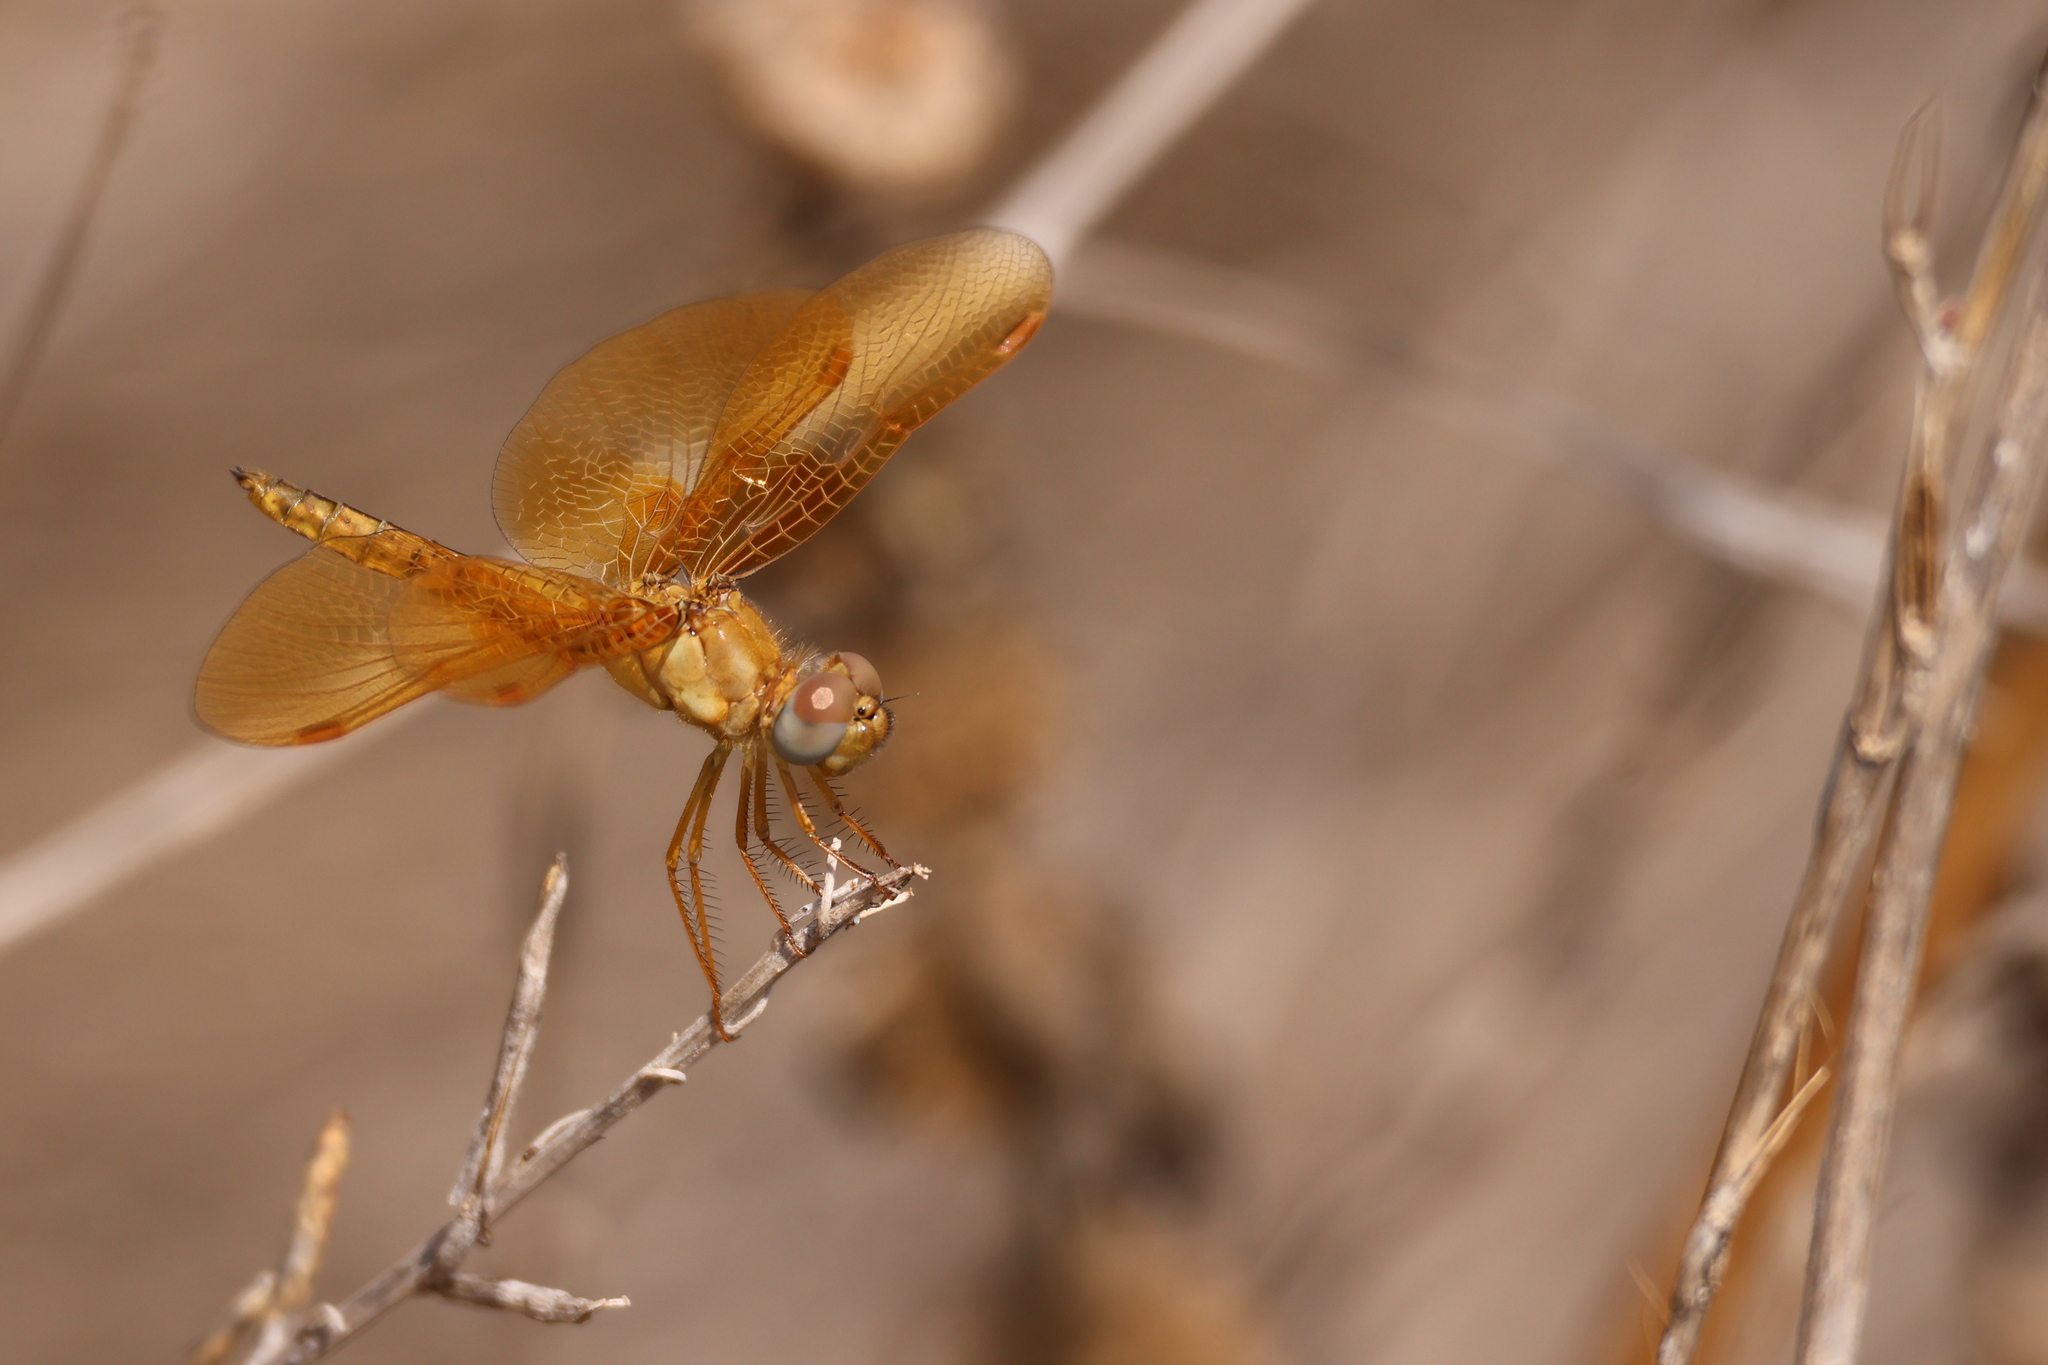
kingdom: Animalia
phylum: Arthropoda
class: Insecta
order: Odonata
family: Libellulidae
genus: Perithemis
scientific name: Perithemis intensa
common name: Mexican amberwing
